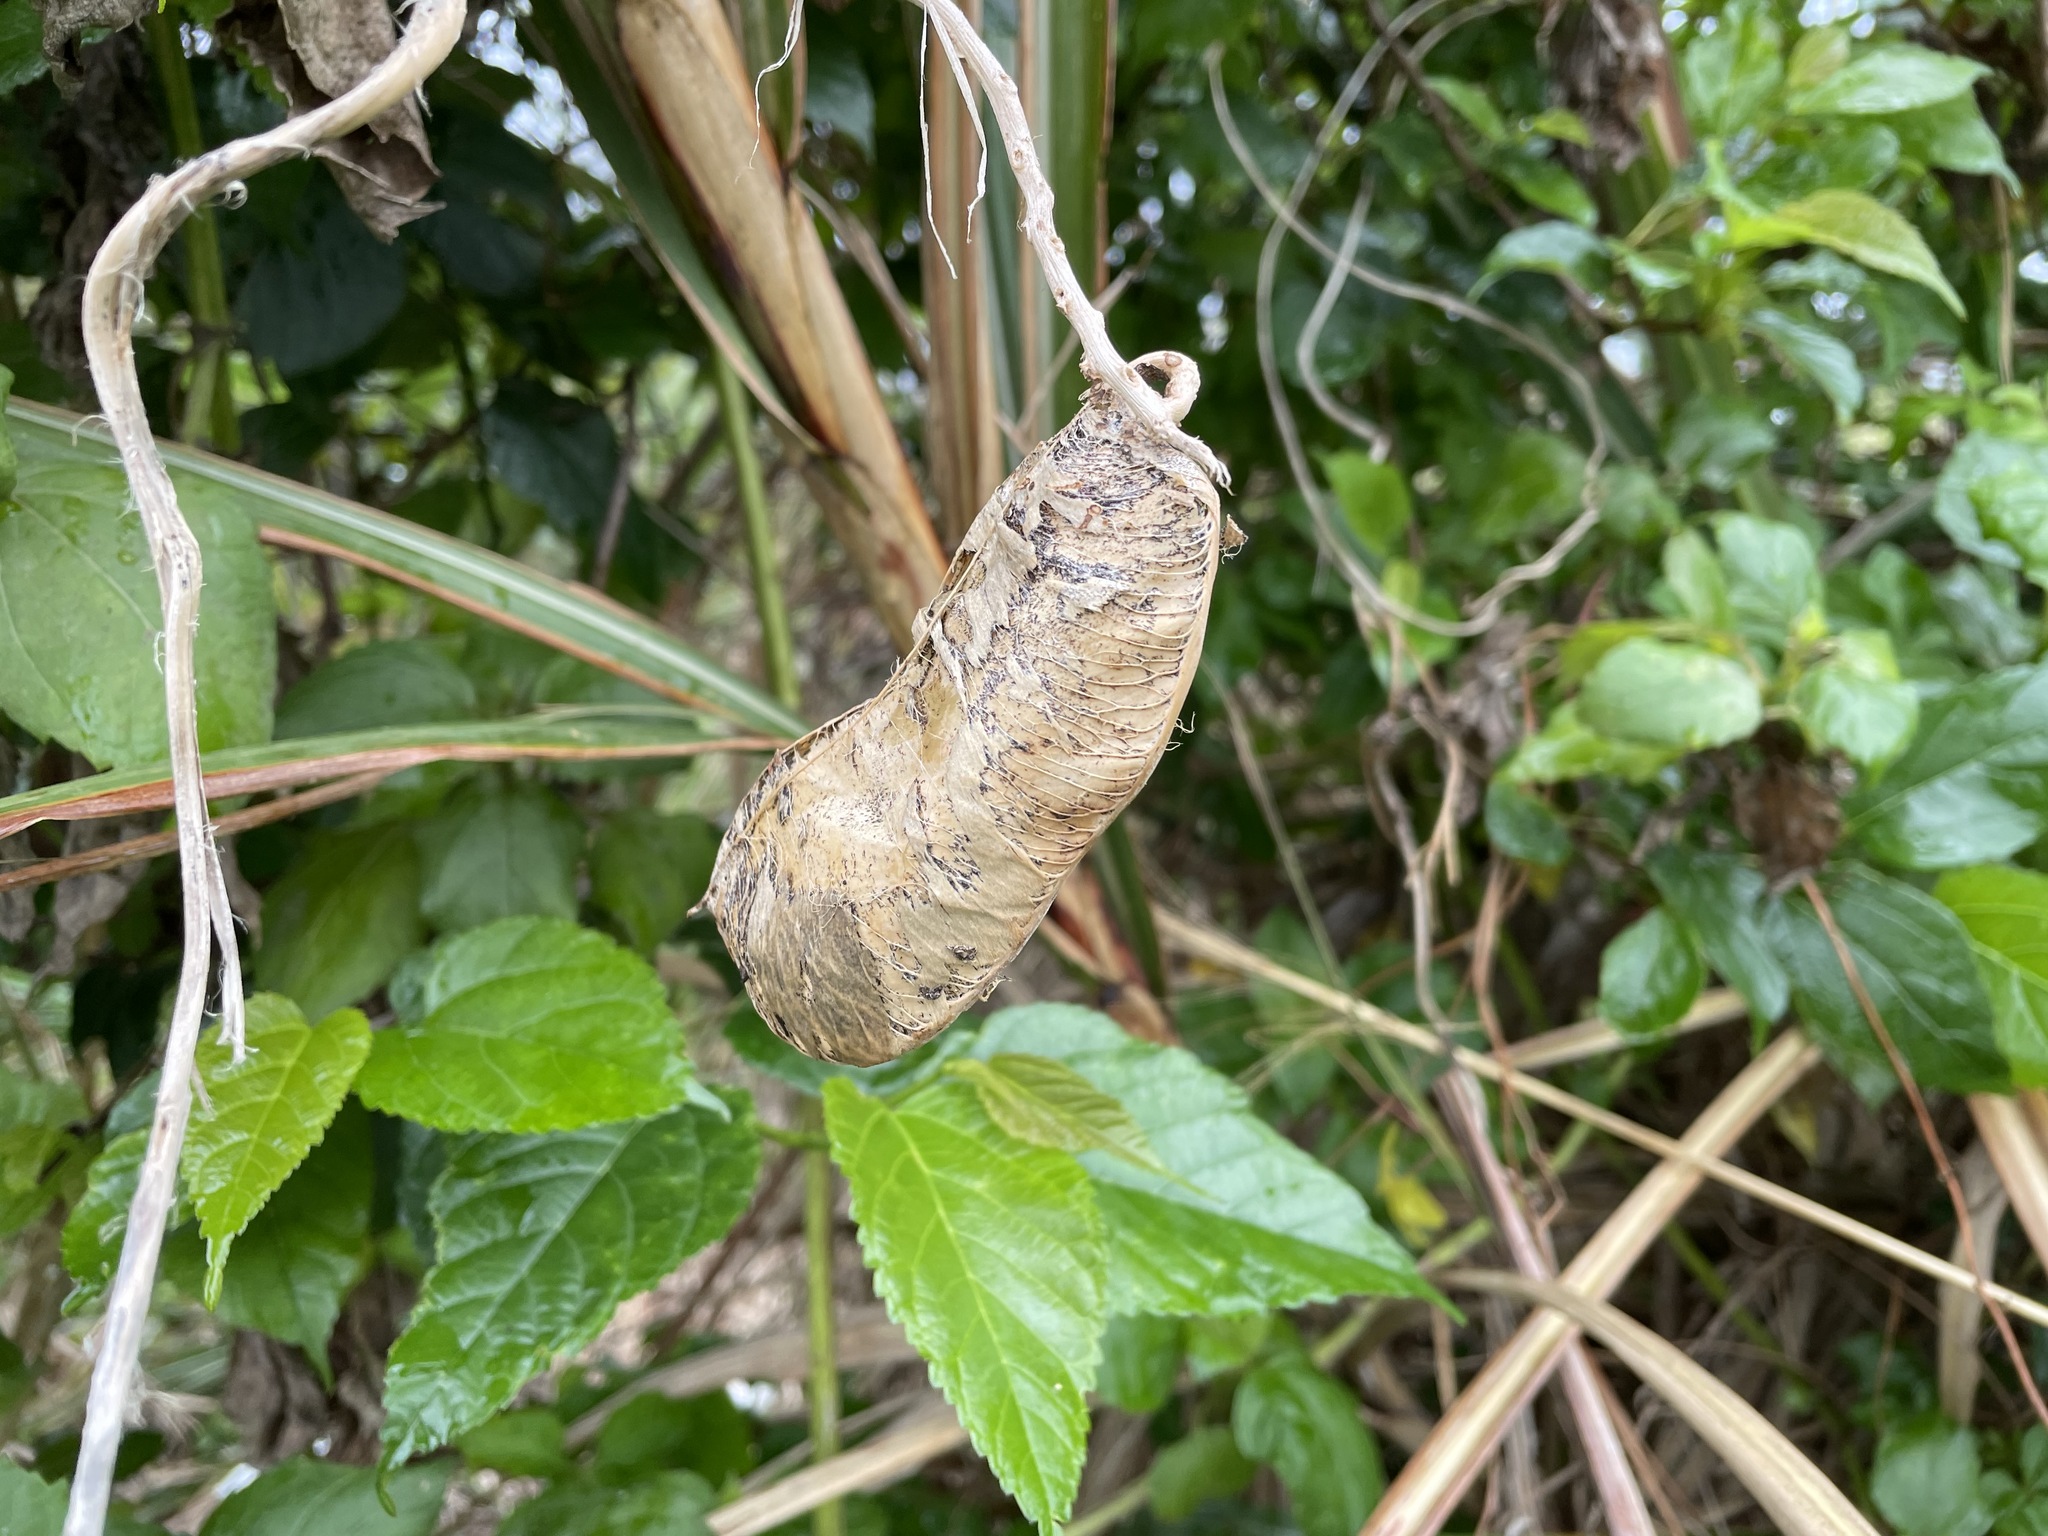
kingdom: Plantae
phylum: Tracheophyta
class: Magnoliopsida
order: Fabales
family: Fabaceae
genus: Canavalia
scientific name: Canavalia lineata
